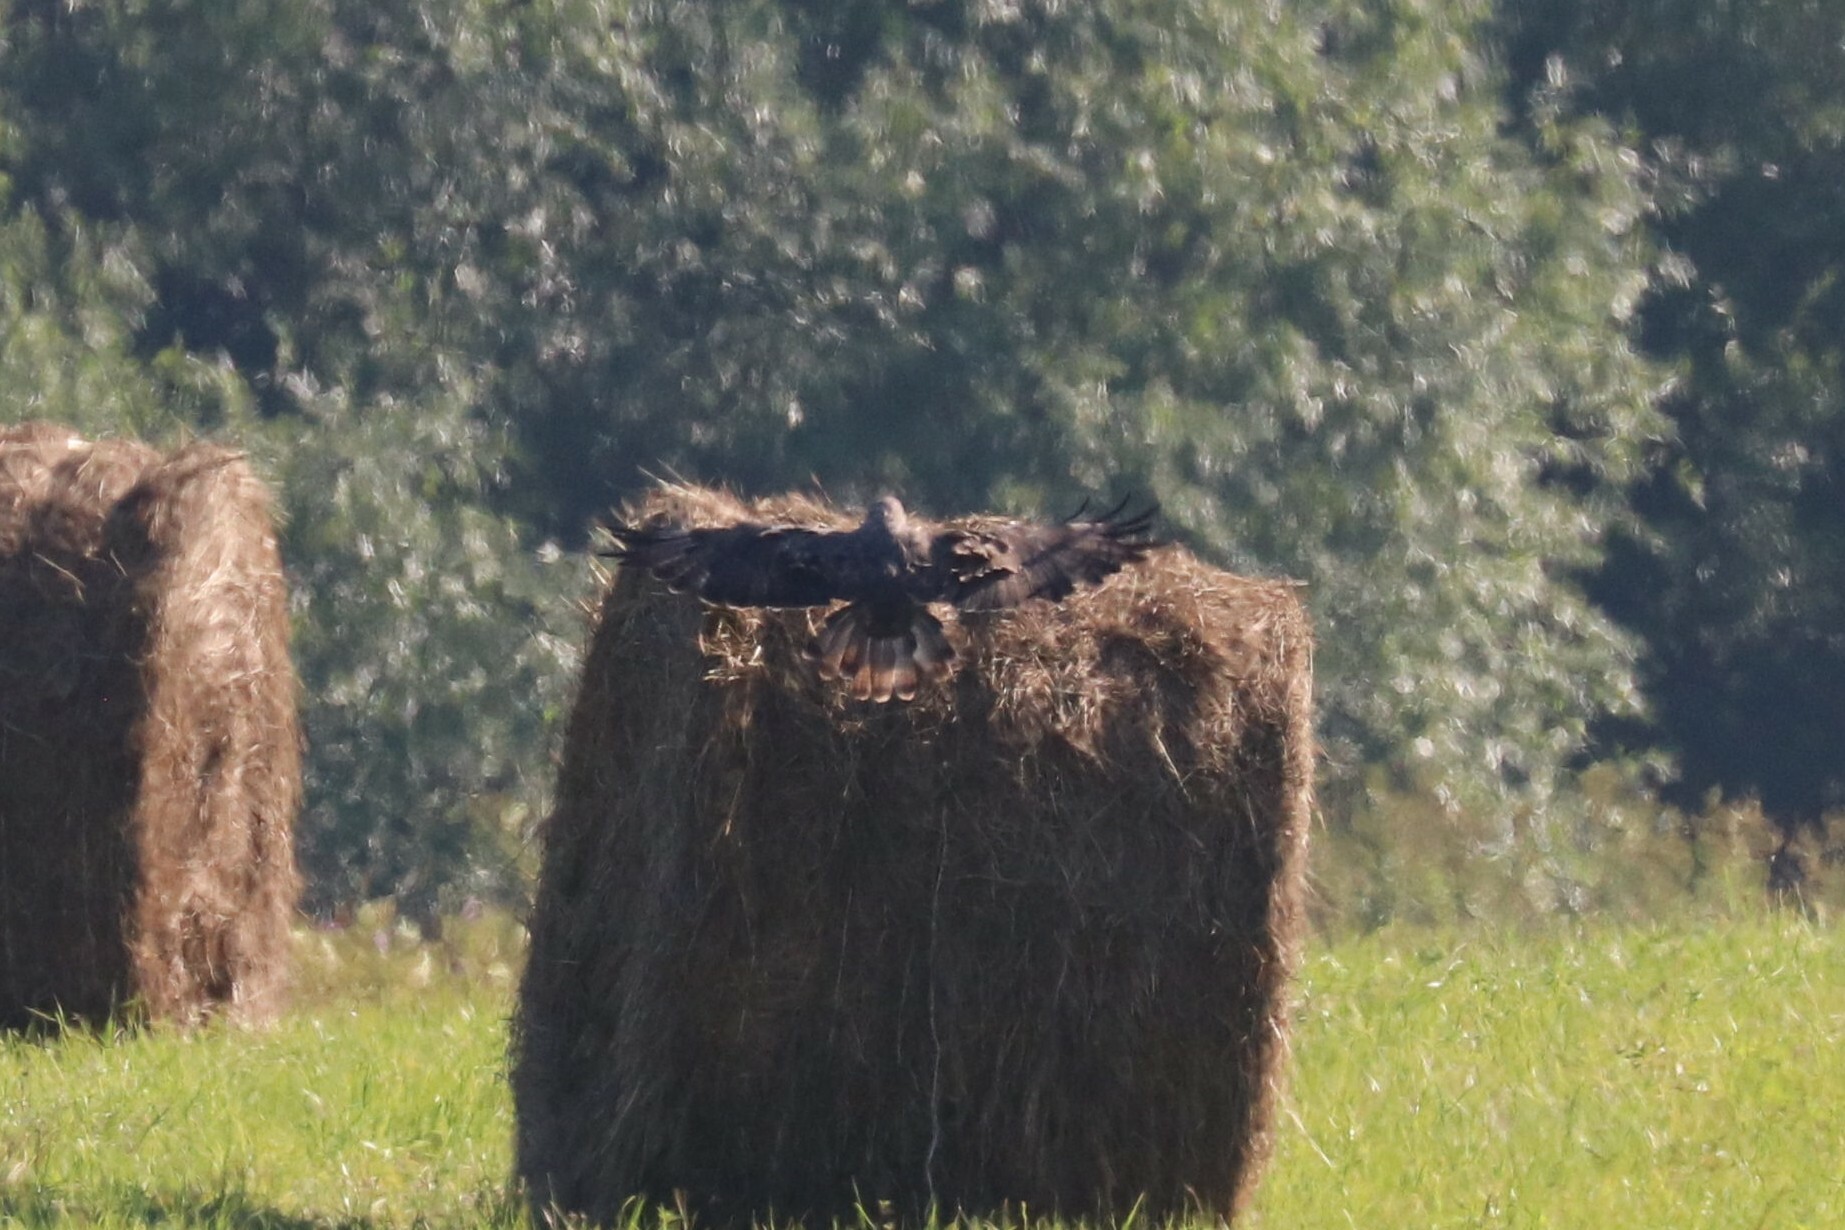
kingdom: Animalia
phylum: Chordata
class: Aves
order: Accipitriformes
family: Accipitridae
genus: Buteo
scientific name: Buteo buteo
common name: Common buzzard
